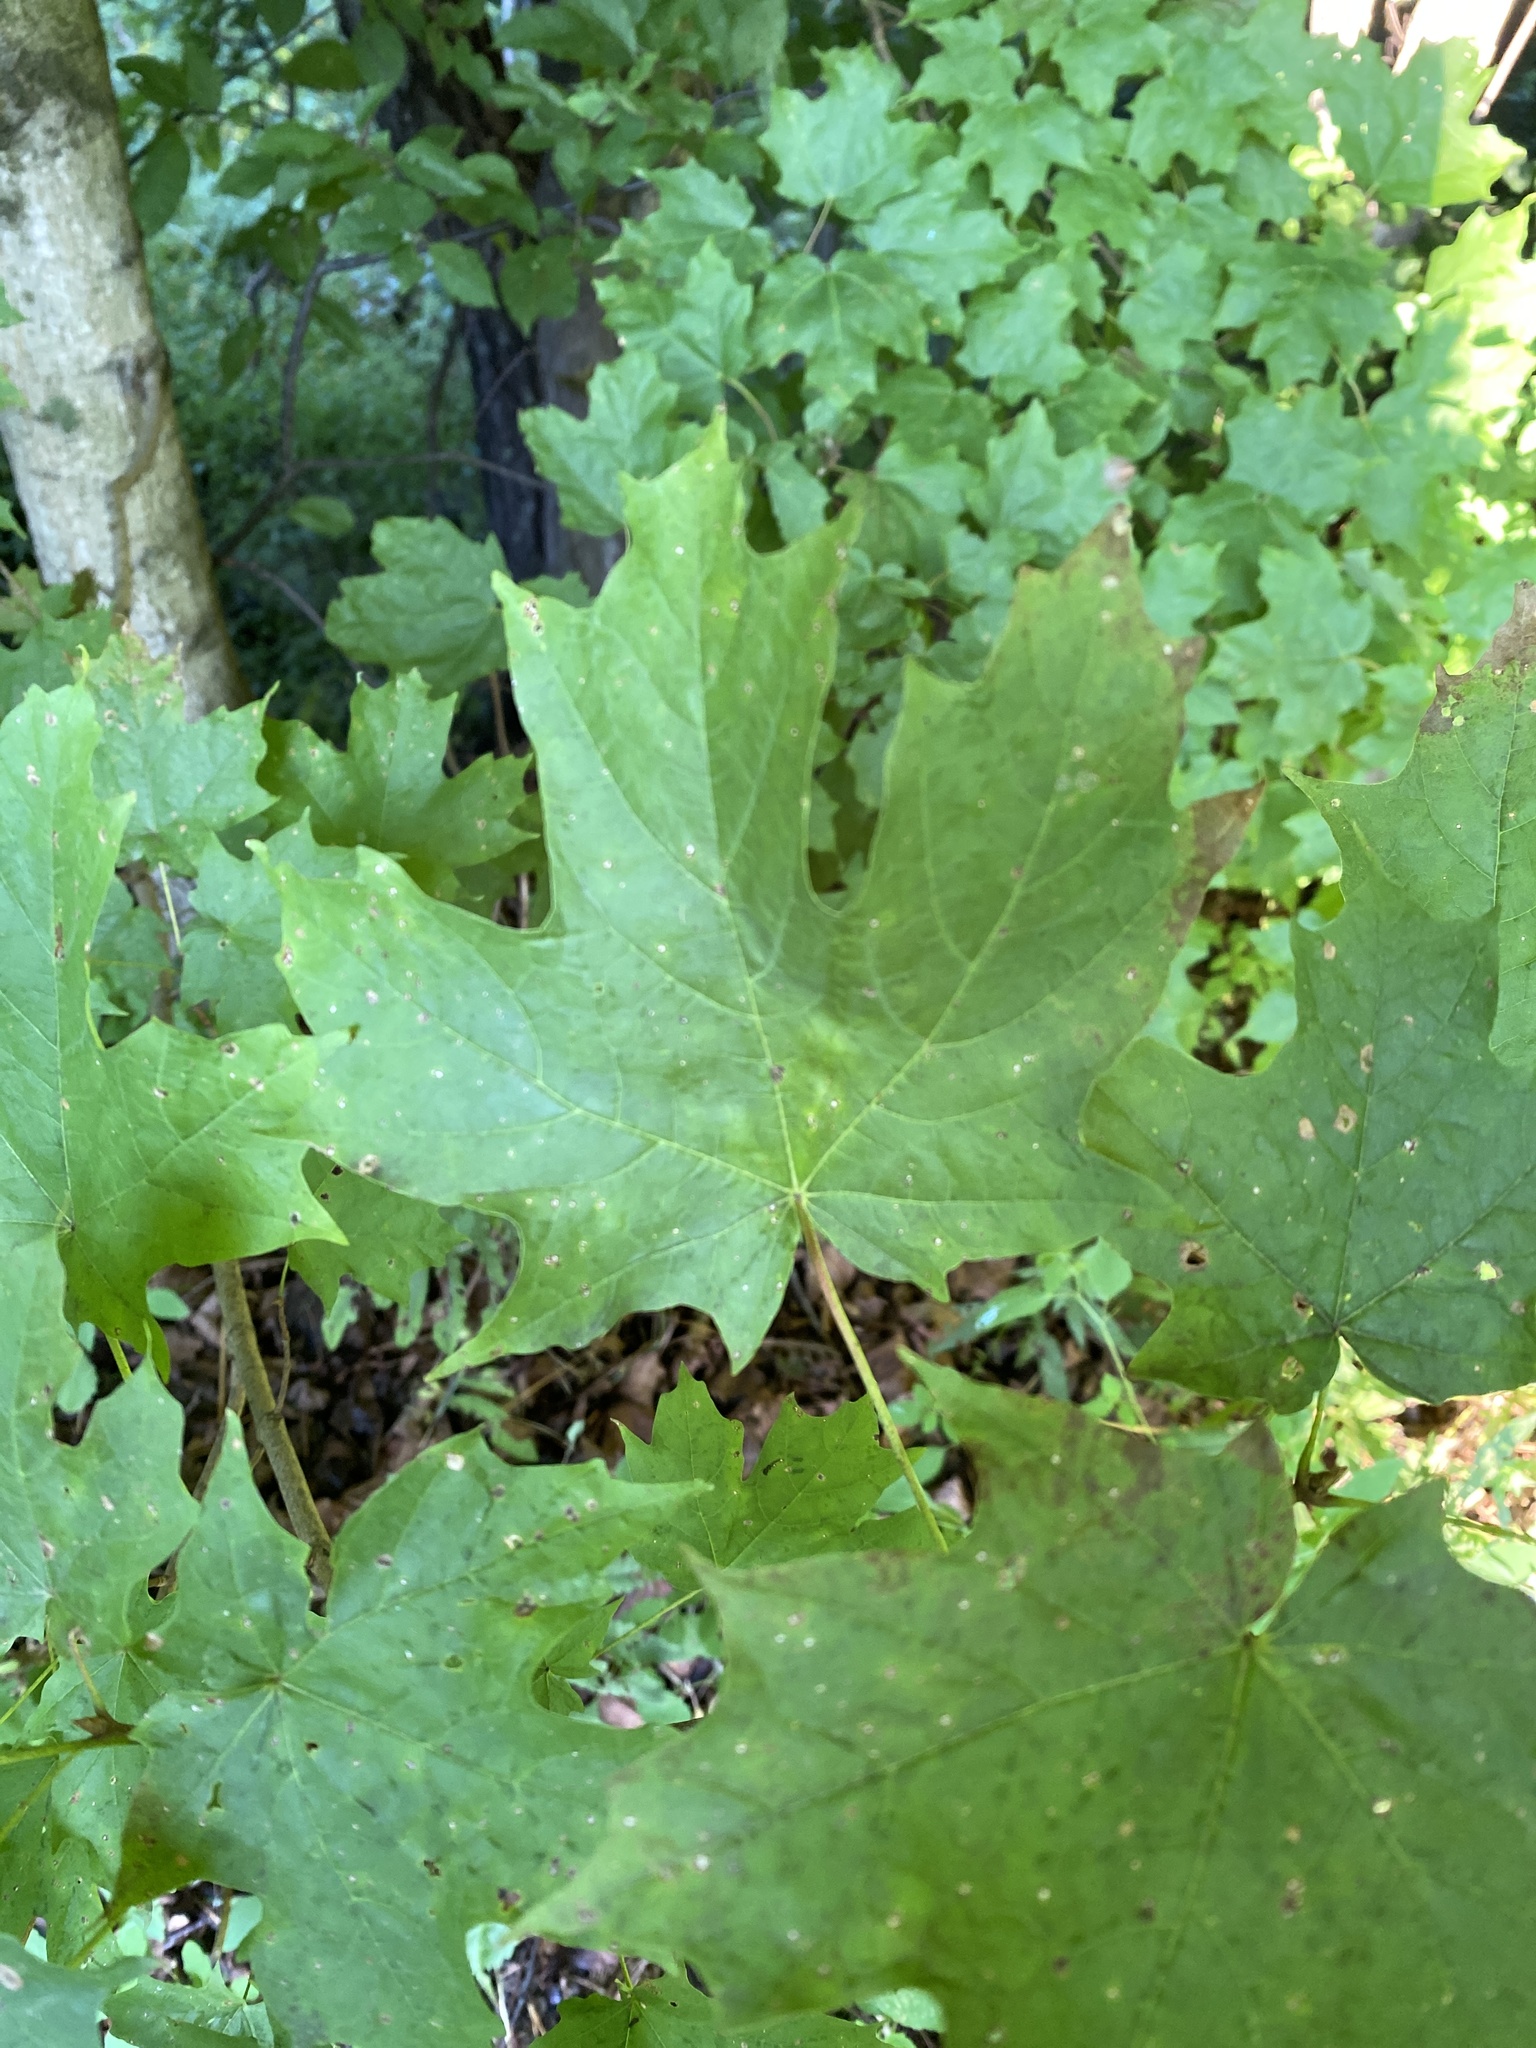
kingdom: Plantae
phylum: Tracheophyta
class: Magnoliopsida
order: Sapindales
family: Sapindaceae
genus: Acer
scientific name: Acer saccharum
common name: Sugar maple
